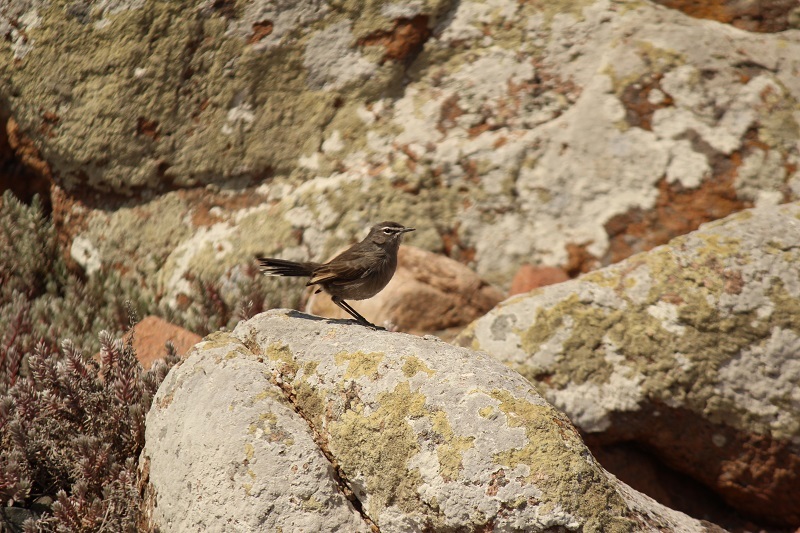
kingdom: Animalia
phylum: Chordata
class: Aves
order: Passeriformes
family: Muscicapidae
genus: Erythropygia
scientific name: Erythropygia coryphoeus
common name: Karoo scrub robin
